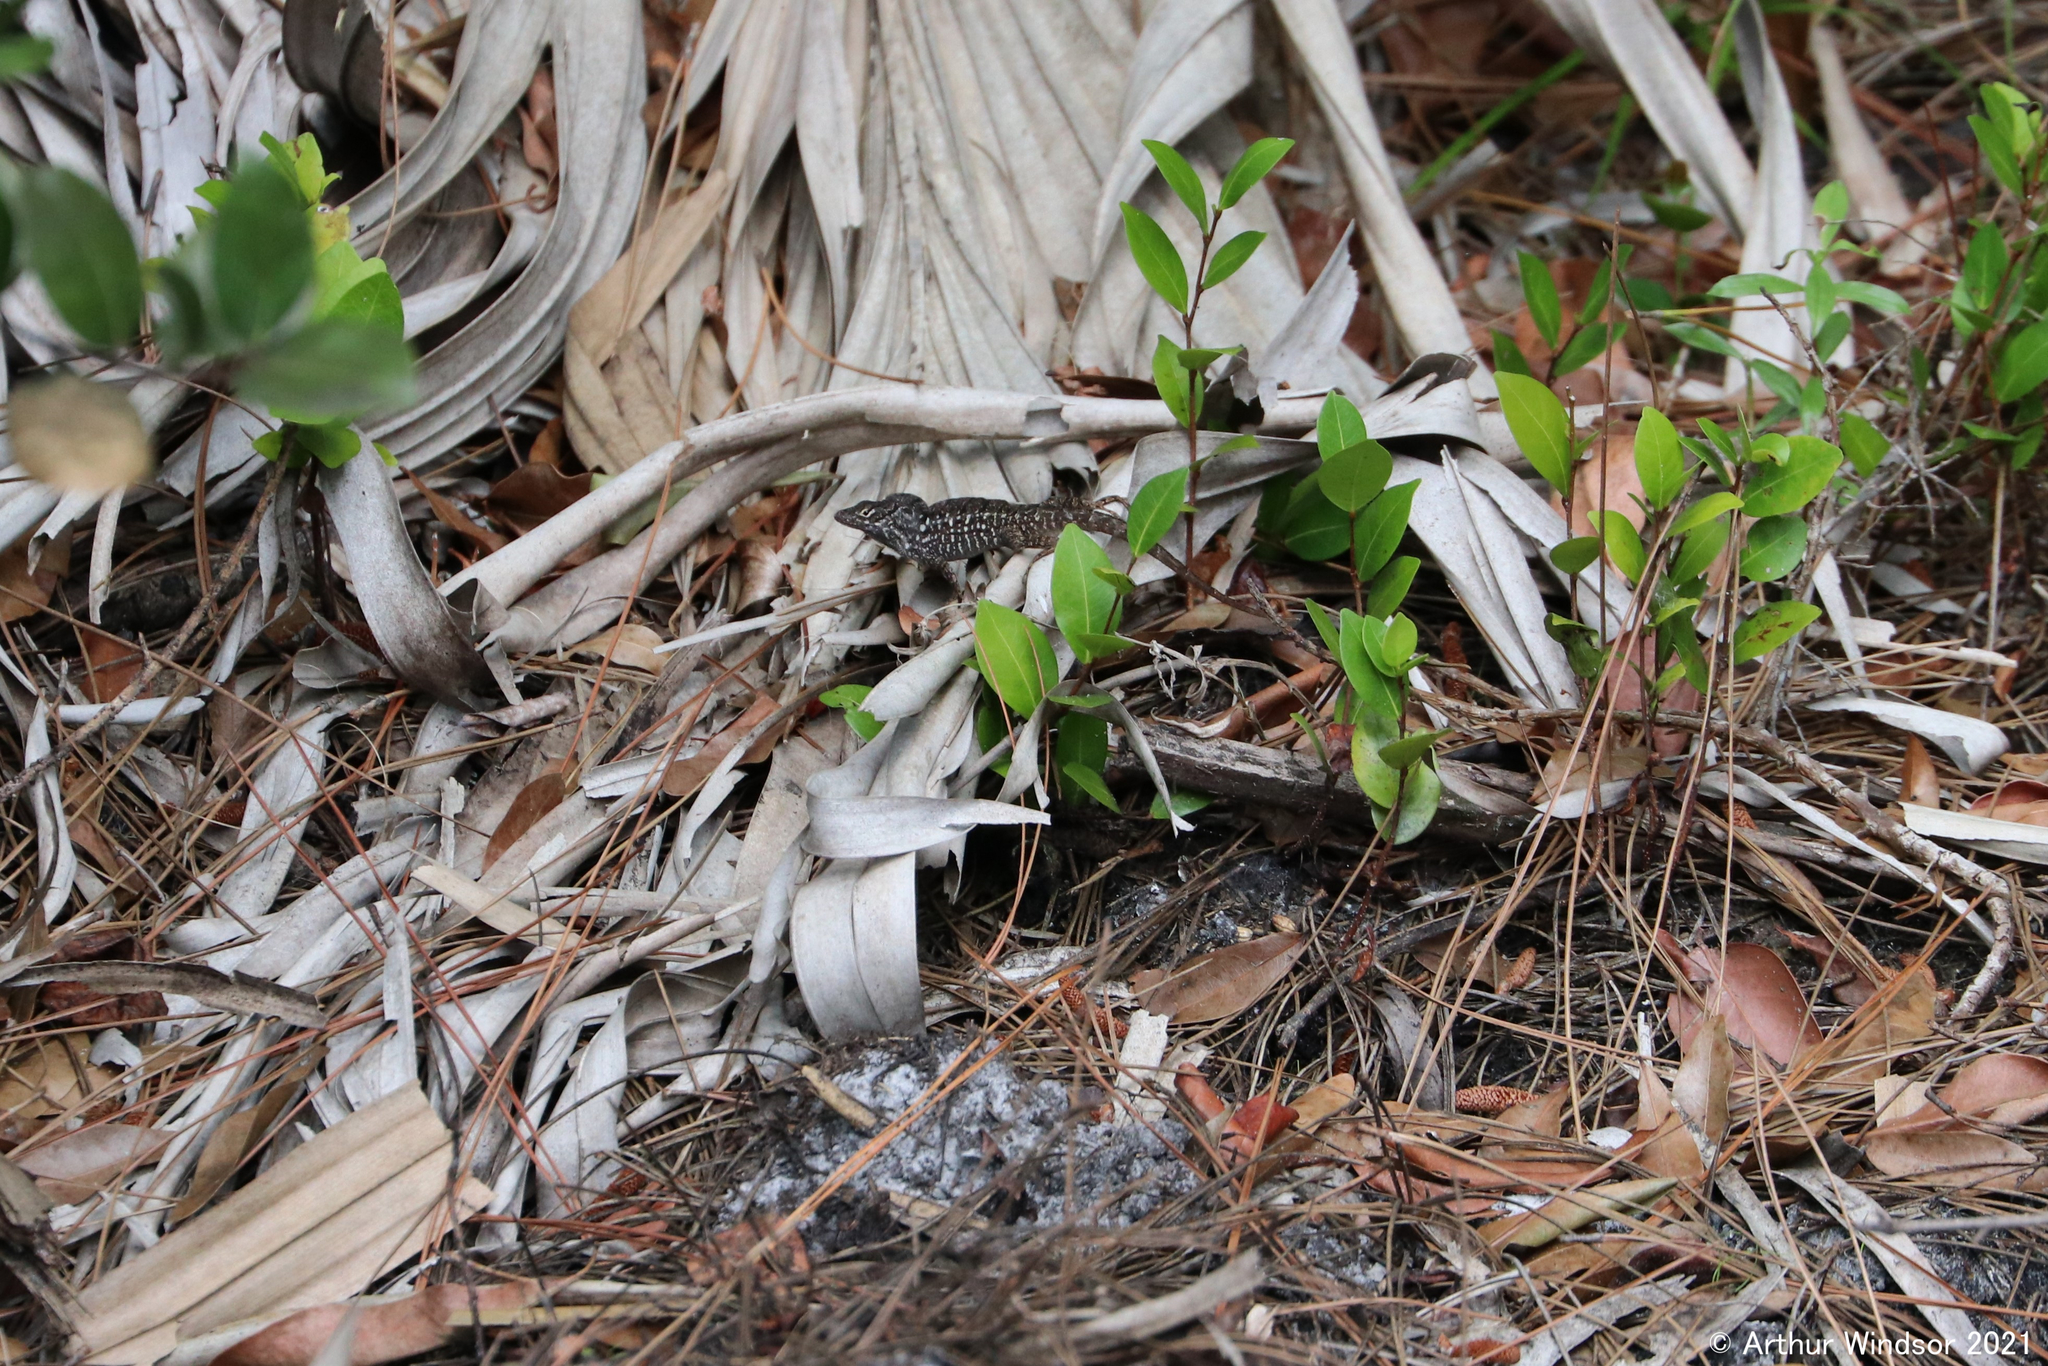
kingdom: Animalia
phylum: Chordata
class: Squamata
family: Dactyloidae
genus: Anolis
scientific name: Anolis sagrei
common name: Brown anole
